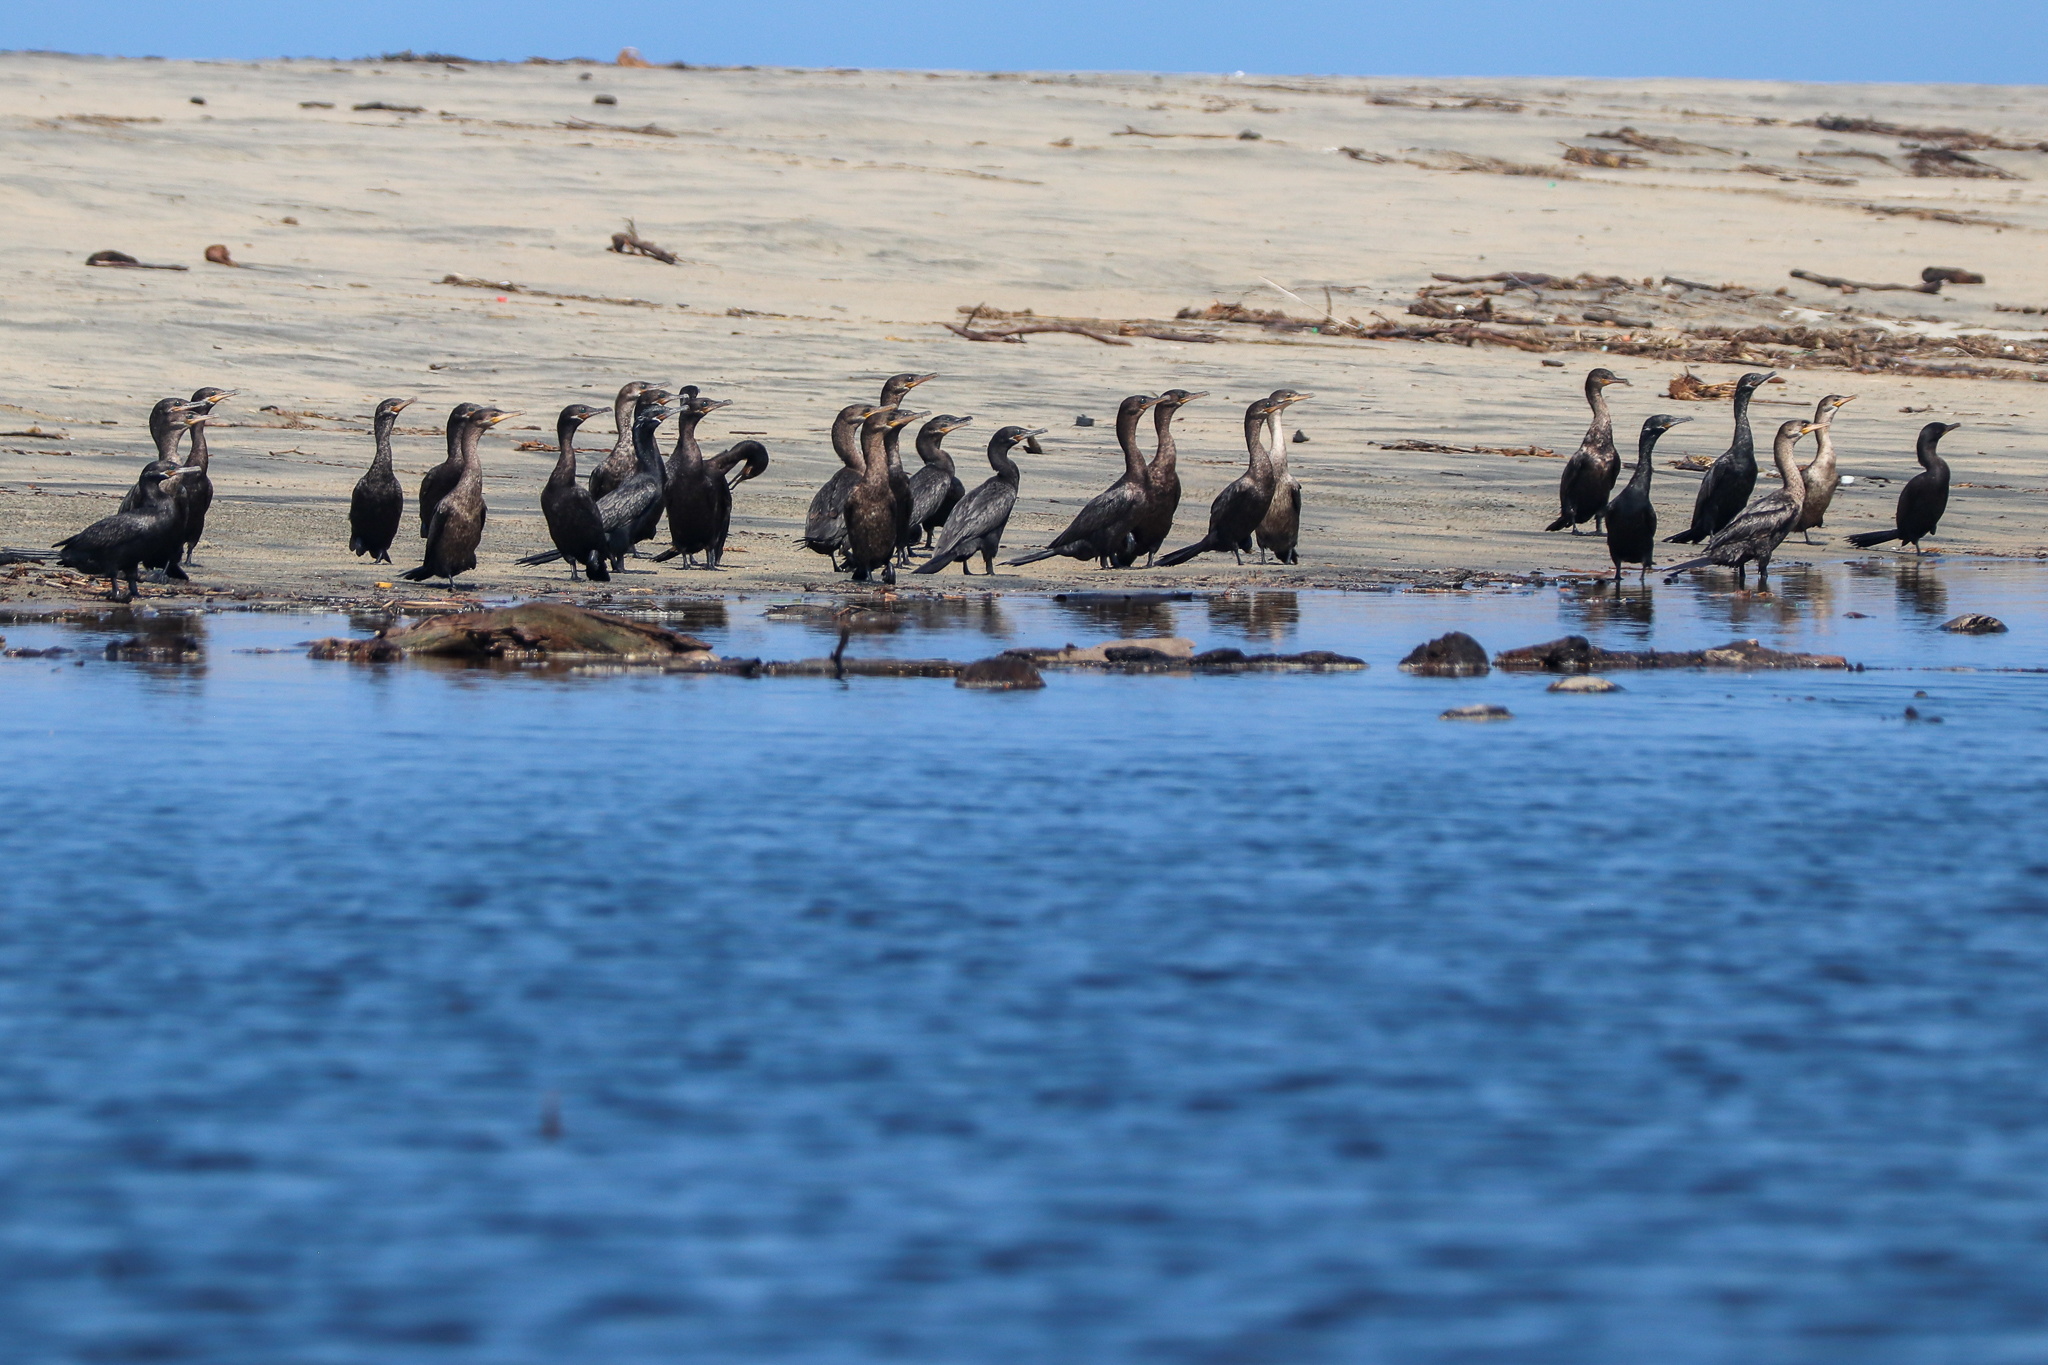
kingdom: Animalia
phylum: Chordata
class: Aves
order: Suliformes
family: Phalacrocoracidae
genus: Phalacrocorax
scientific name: Phalacrocorax brasilianus
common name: Neotropic cormorant
